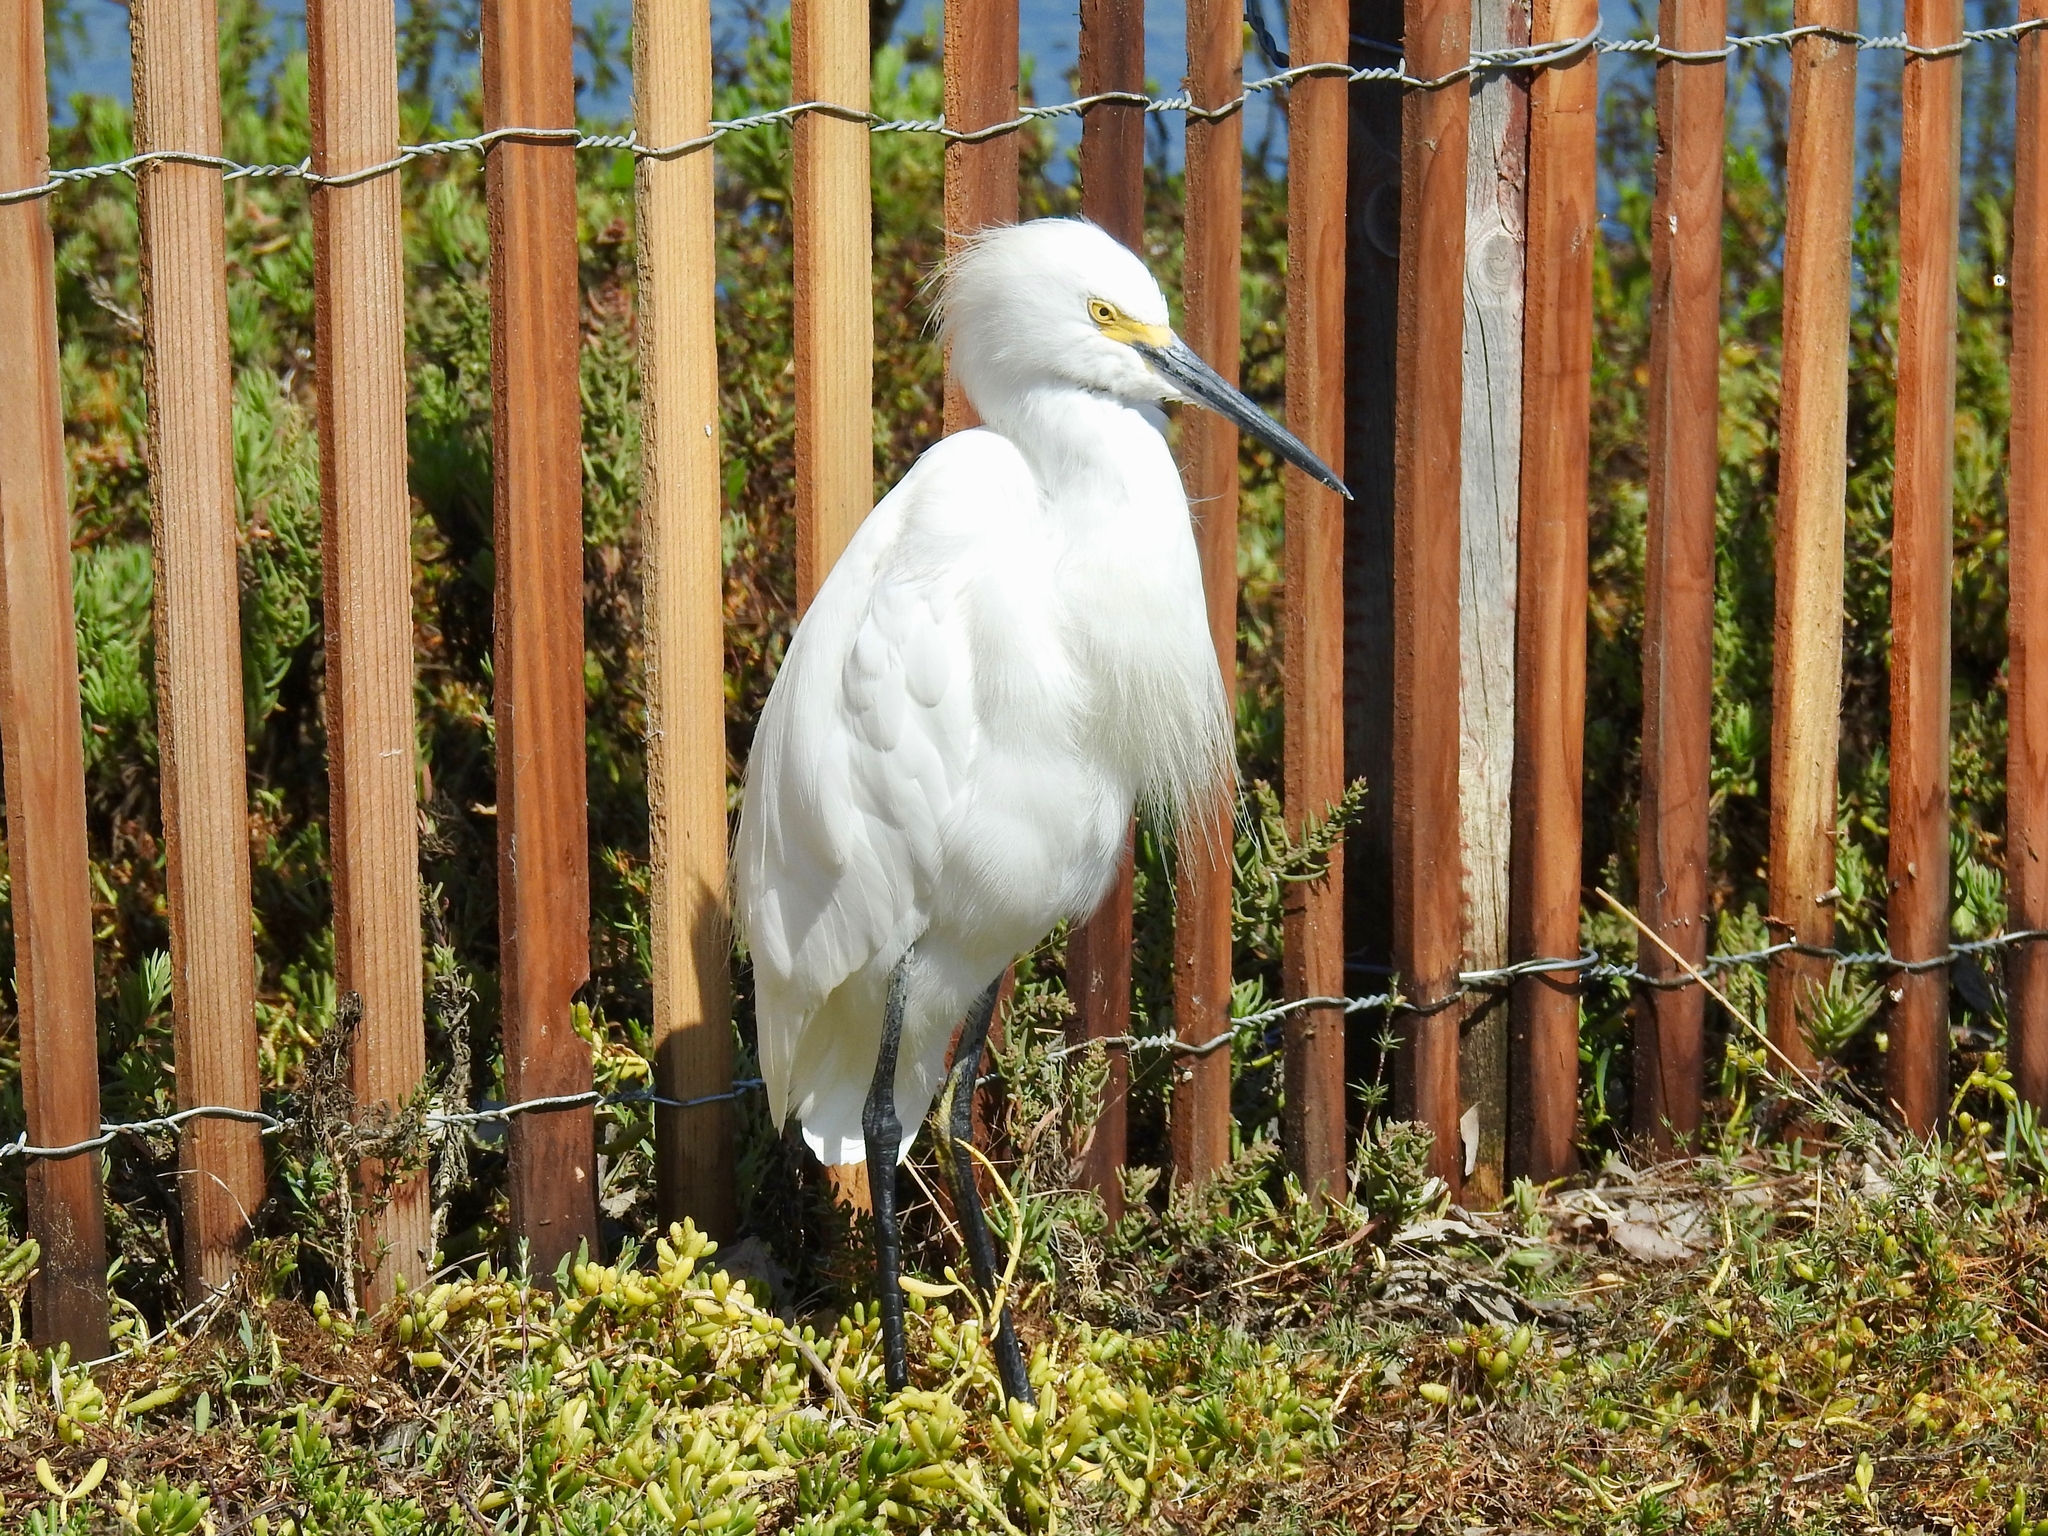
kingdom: Animalia
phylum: Chordata
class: Aves
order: Pelecaniformes
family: Ardeidae
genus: Egretta
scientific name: Egretta thula
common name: Snowy egret
